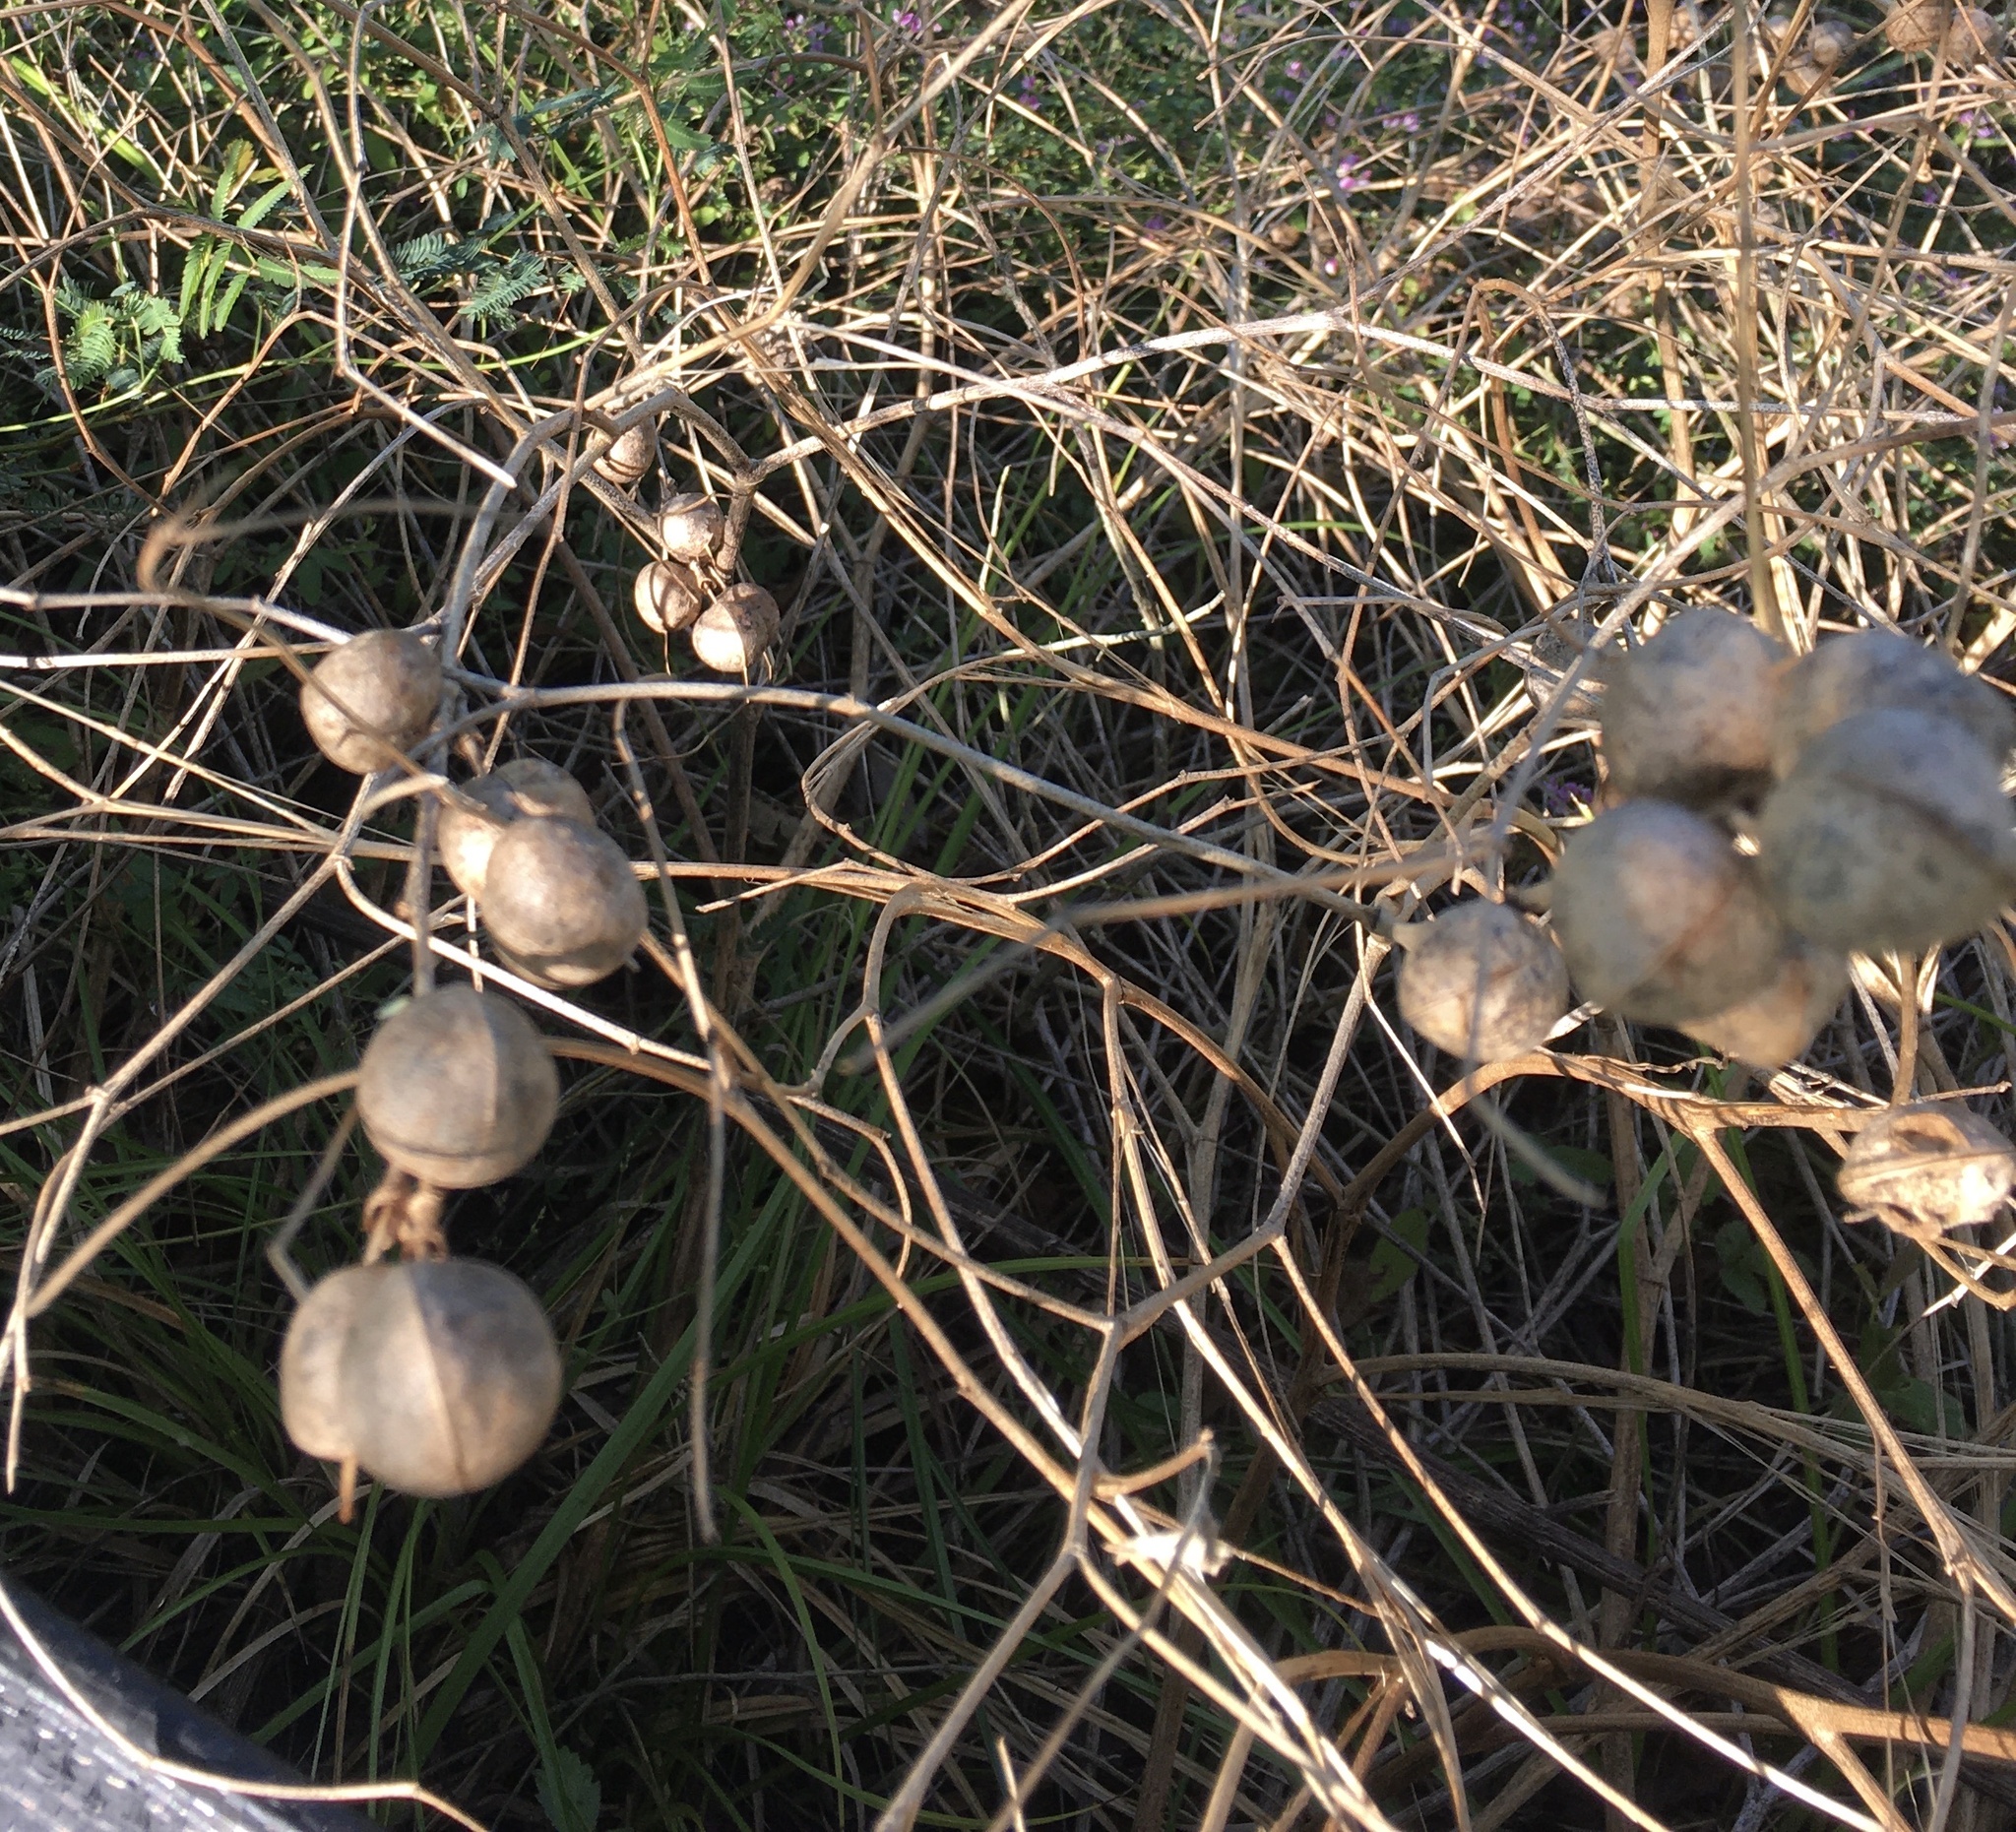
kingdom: Plantae
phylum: Tracheophyta
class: Magnoliopsida
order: Fabales
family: Fabaceae
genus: Baptisia
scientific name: Baptisia sphaerocarpa
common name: Round wild indigo
